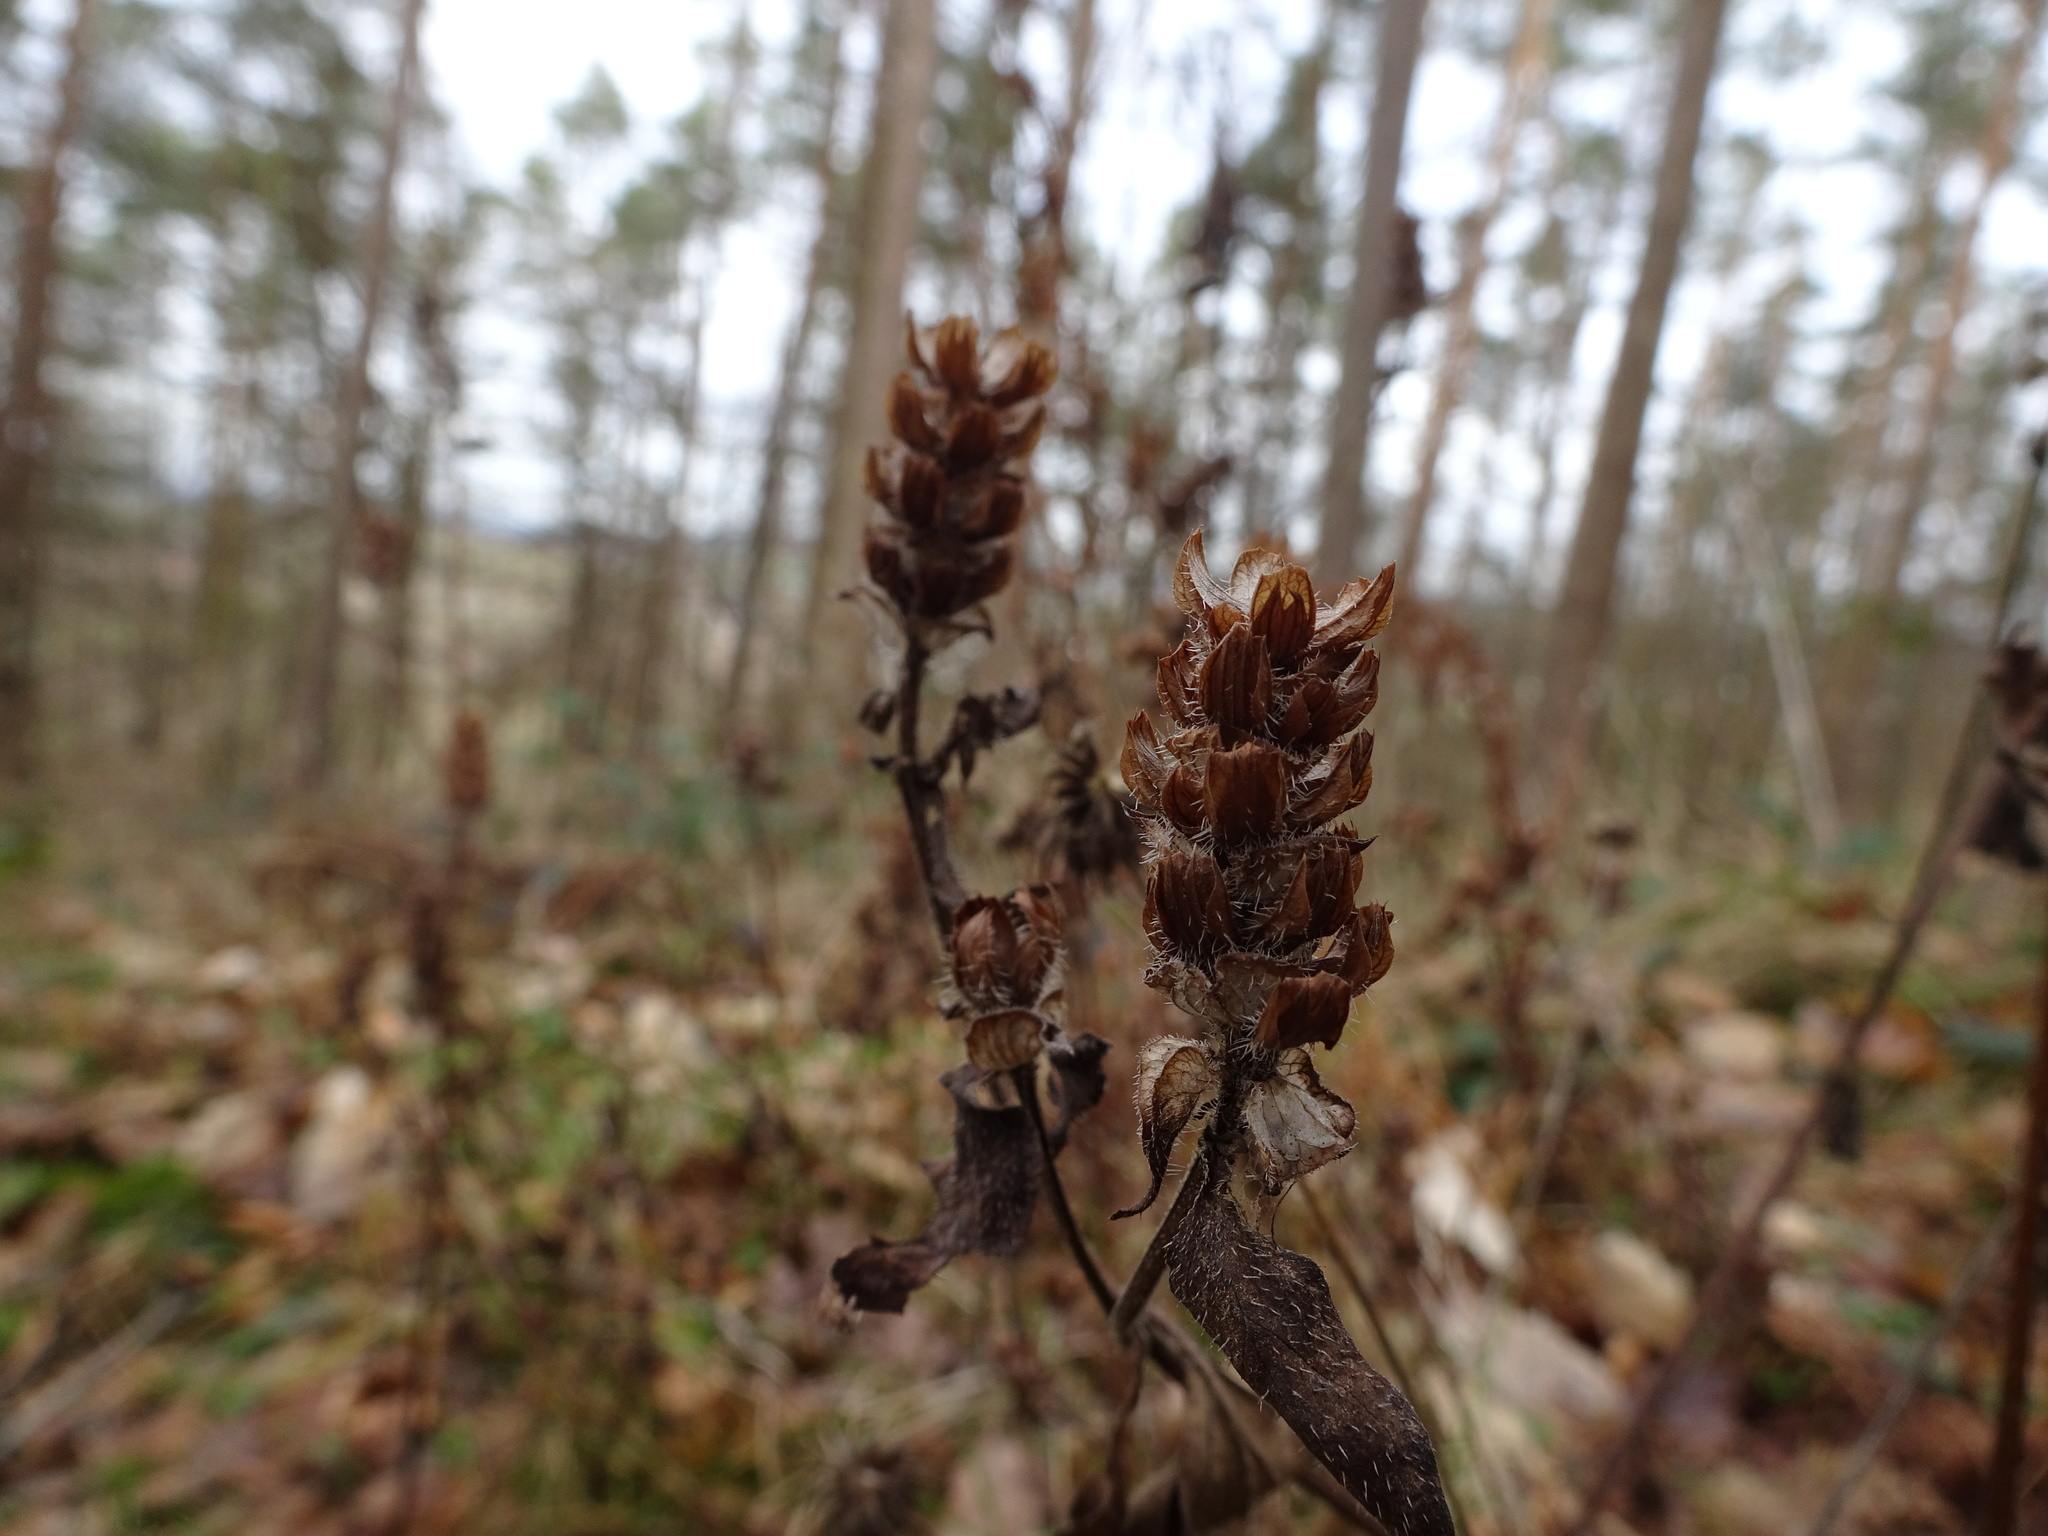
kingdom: Plantae
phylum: Tracheophyta
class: Magnoliopsida
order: Lamiales
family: Lamiaceae
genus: Prunella
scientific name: Prunella vulgaris
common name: Heal-all
